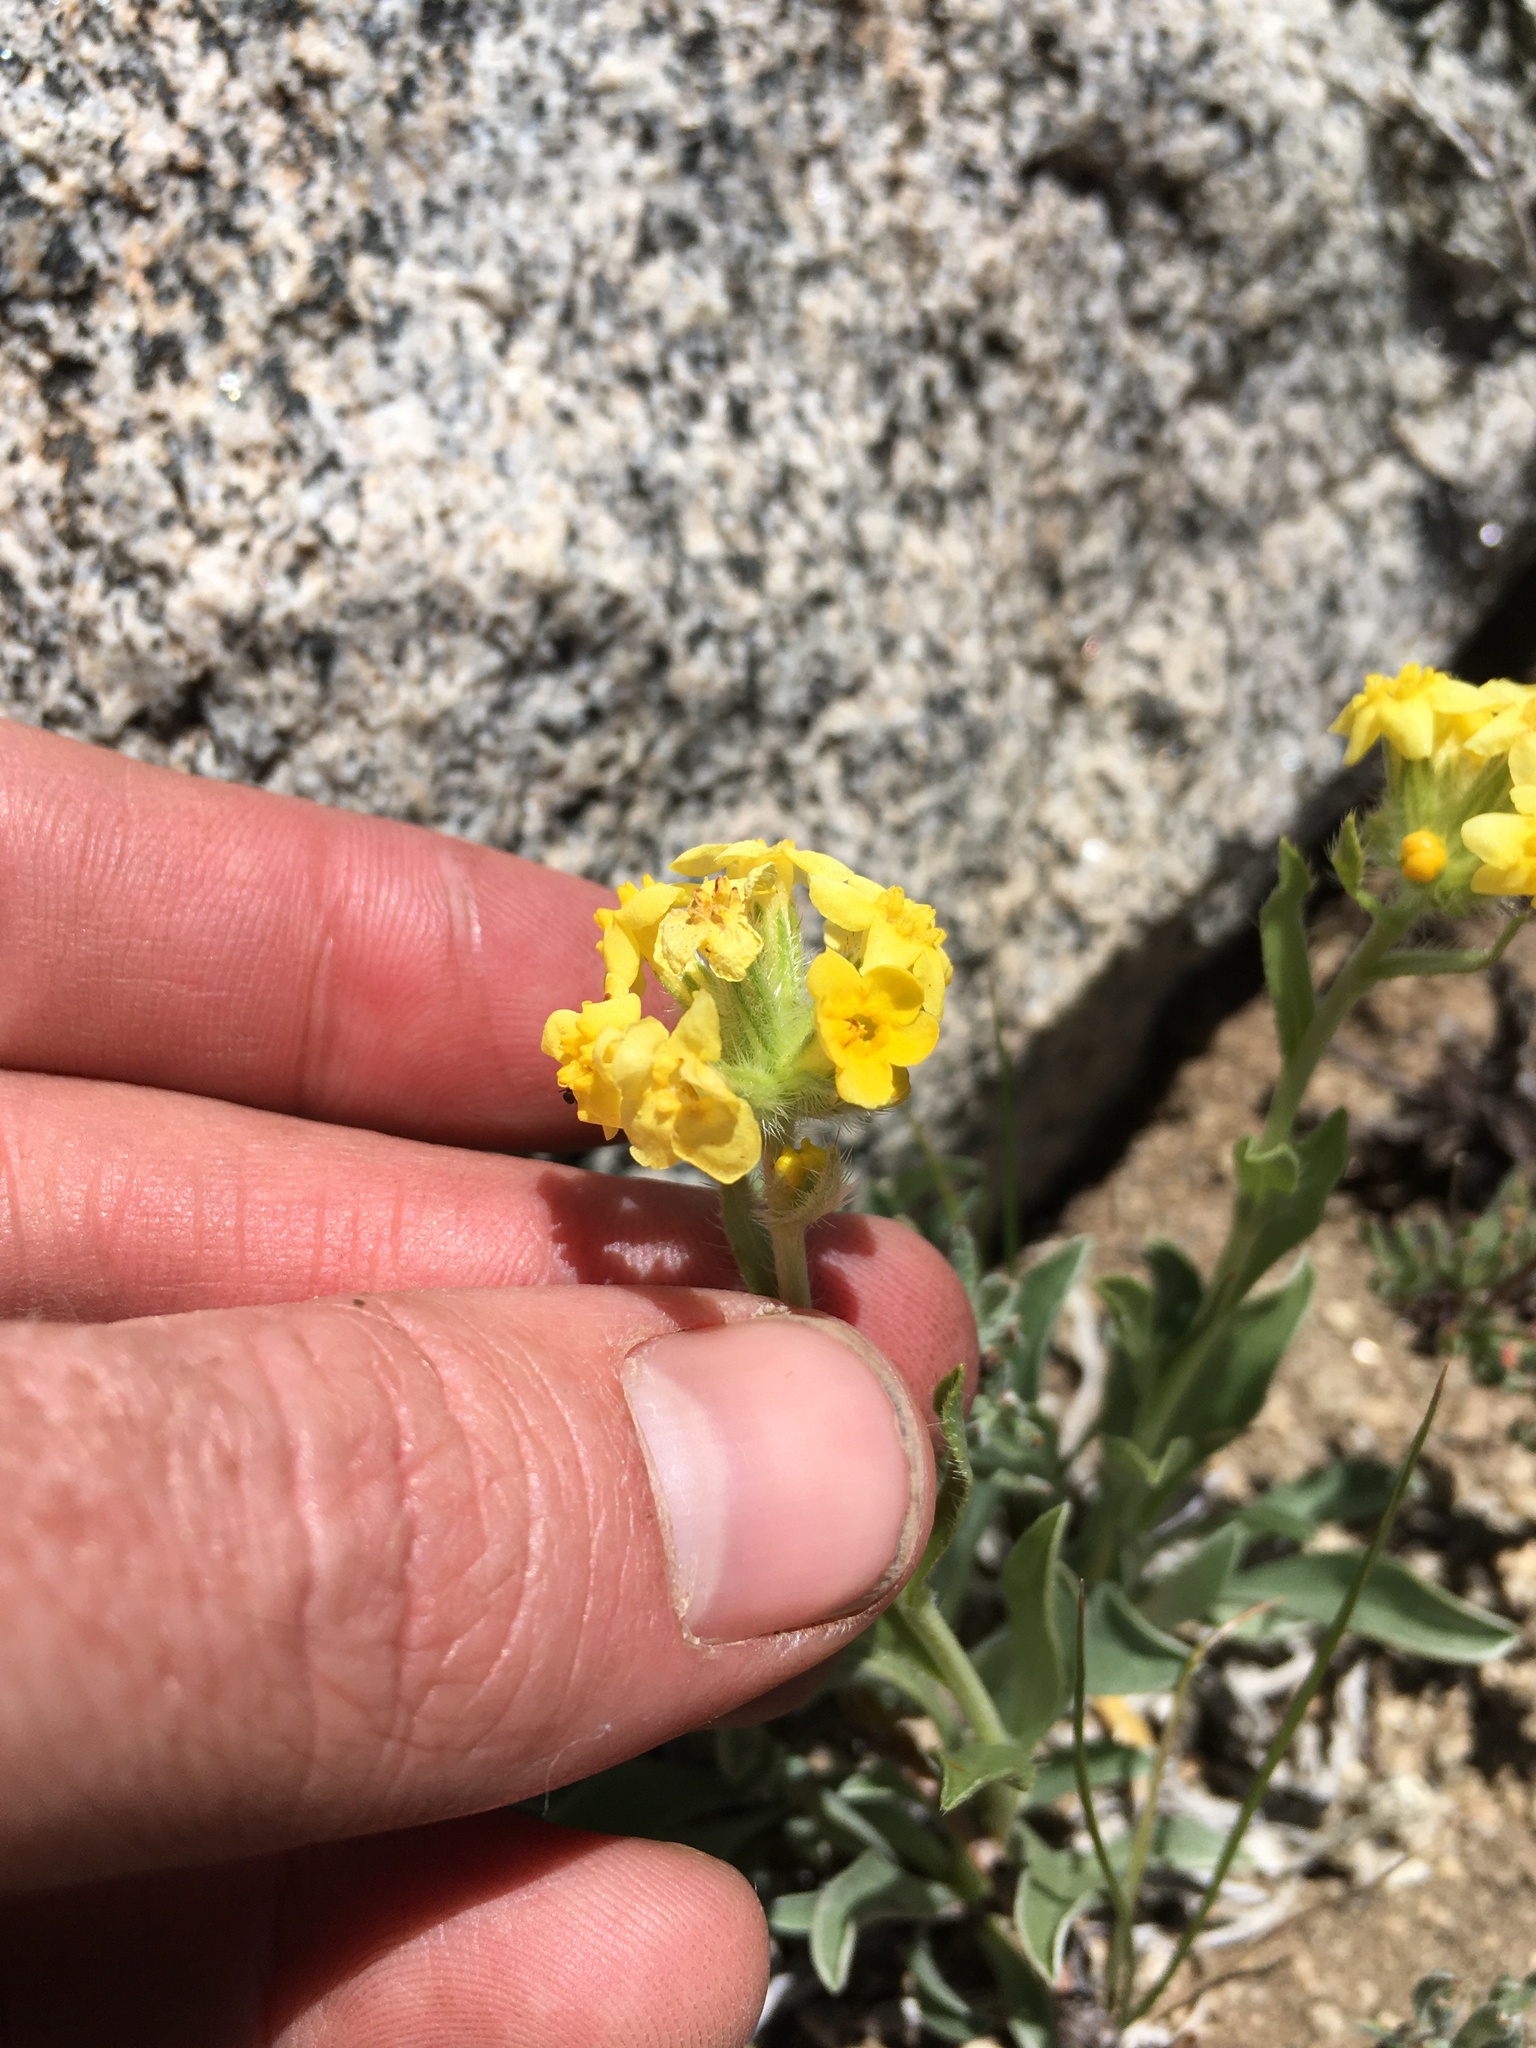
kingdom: Plantae
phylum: Tracheophyta
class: Magnoliopsida
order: Boraginales
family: Boraginaceae
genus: Oreocarya
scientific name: Oreocarya confertiflora
